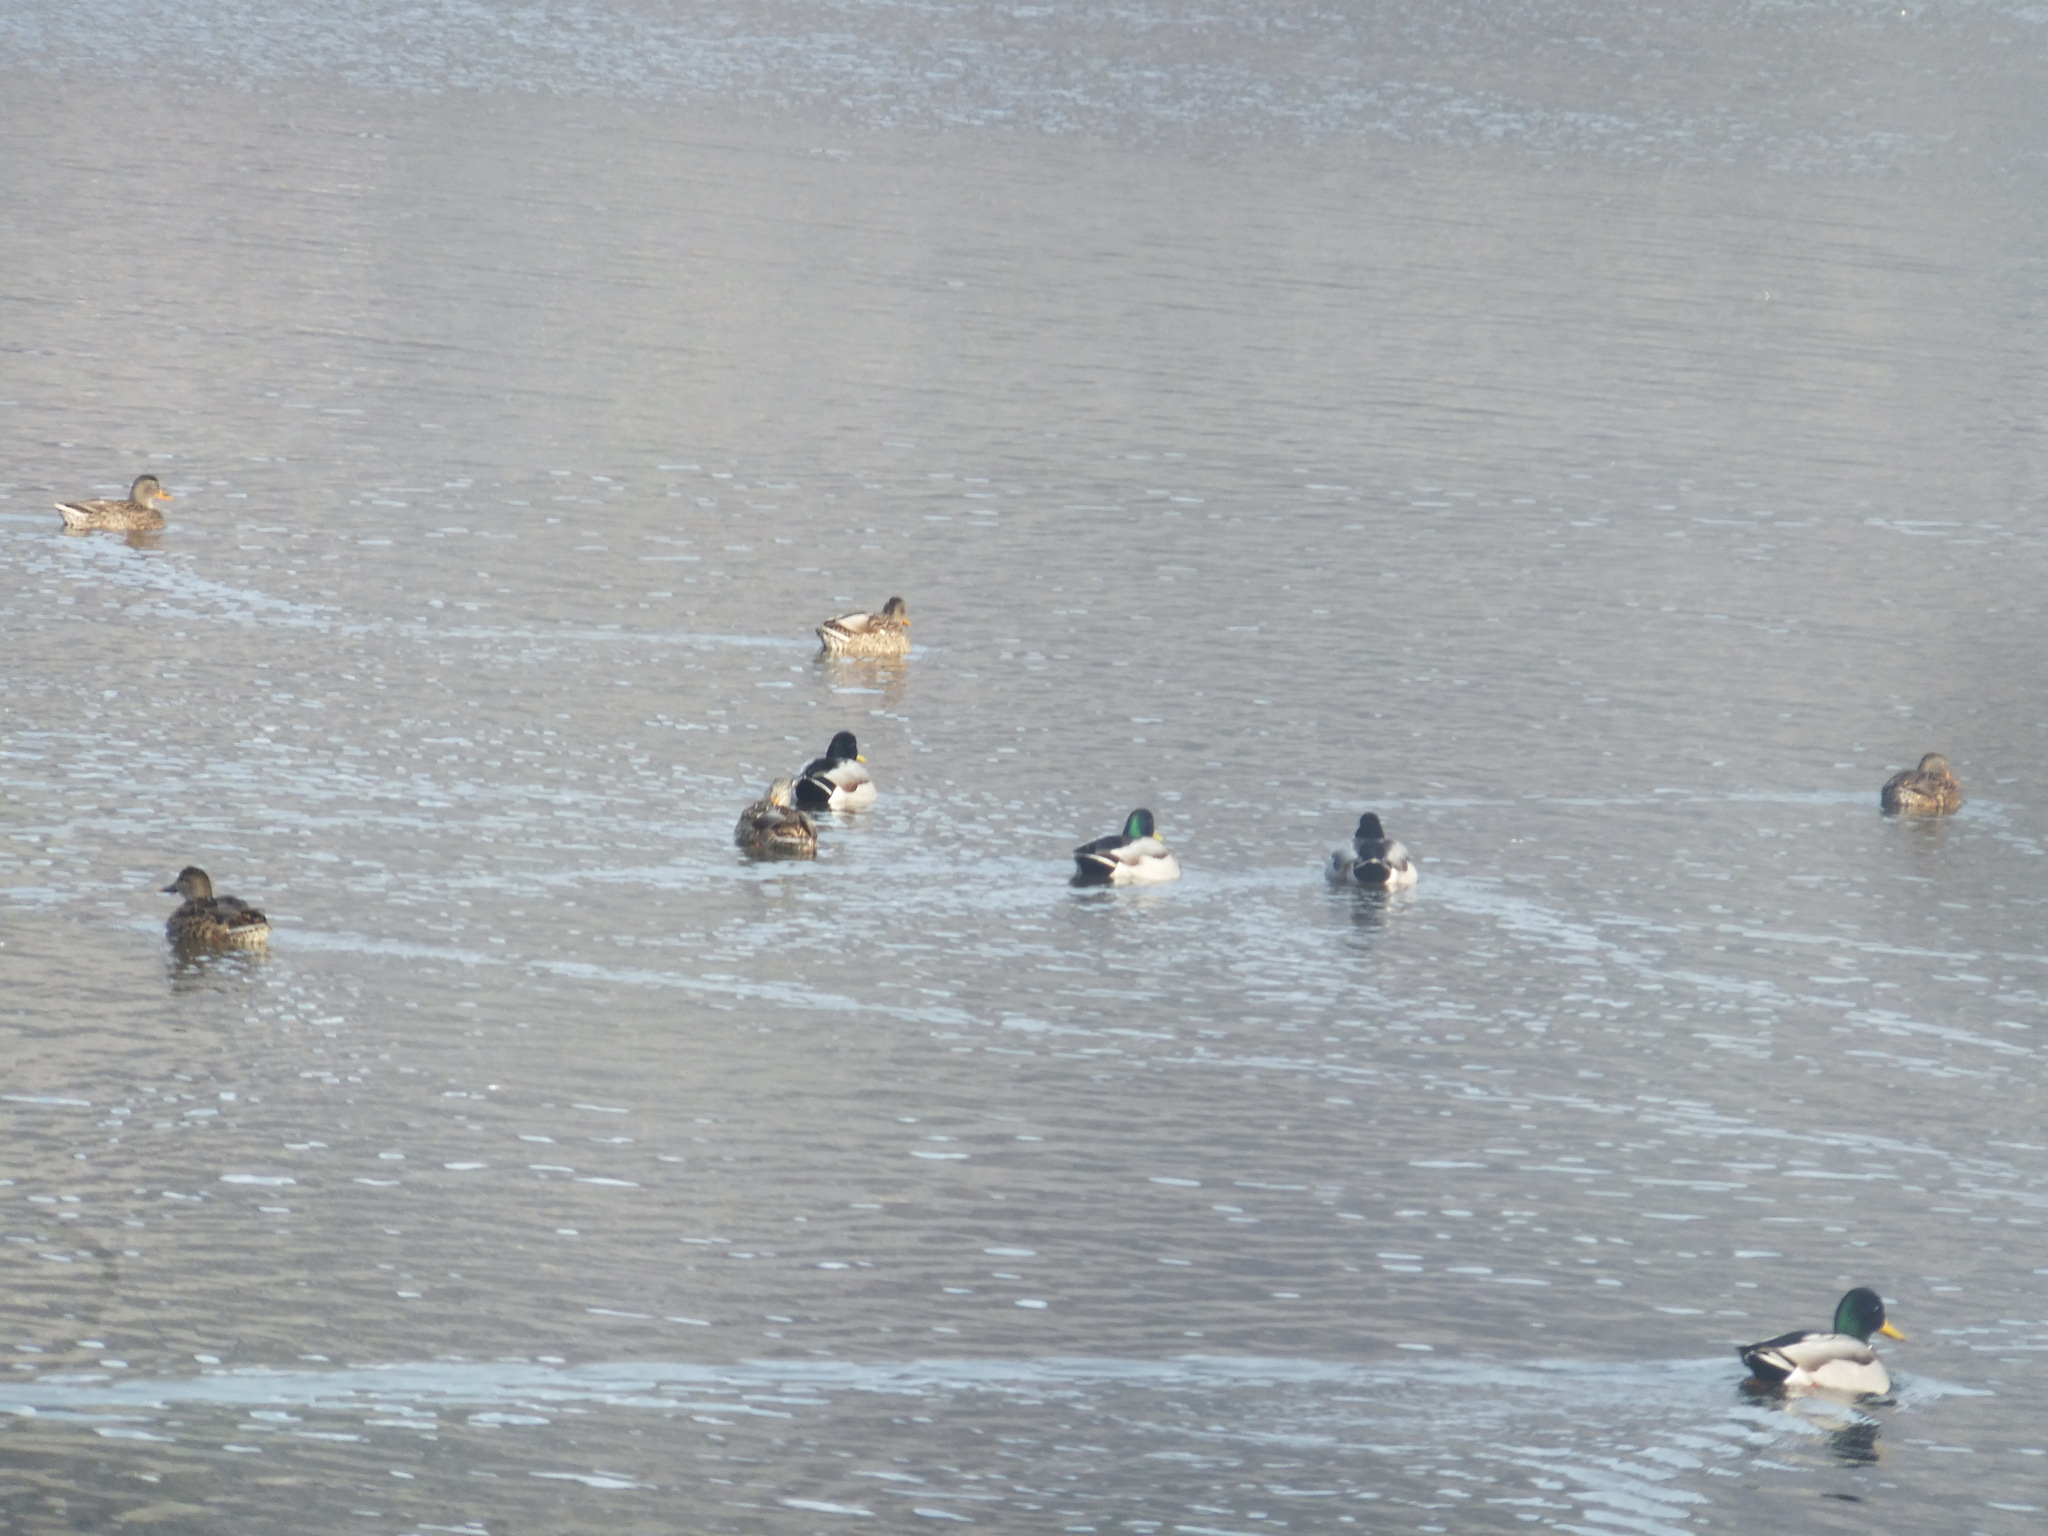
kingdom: Animalia
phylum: Chordata
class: Aves
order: Anseriformes
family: Anatidae
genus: Anas
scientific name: Anas platyrhynchos
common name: Mallard
